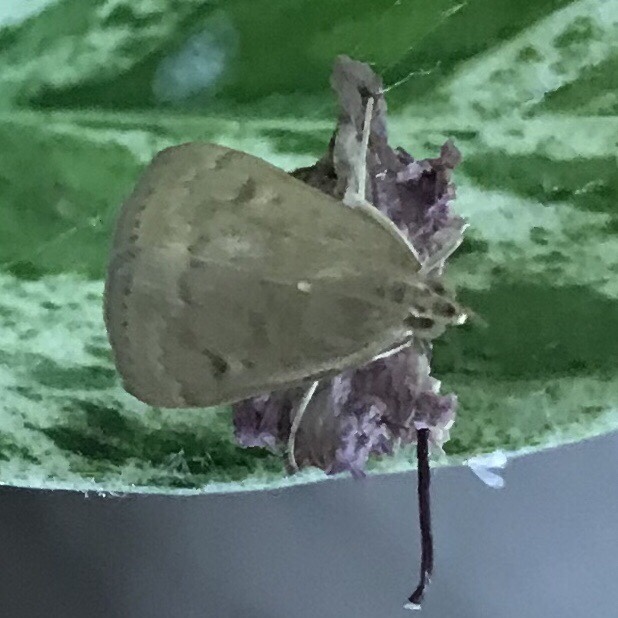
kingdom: Animalia
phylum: Arthropoda
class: Insecta
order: Lepidoptera
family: Crambidae
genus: Achyra
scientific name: Achyra rantalis
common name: Garden webworm
